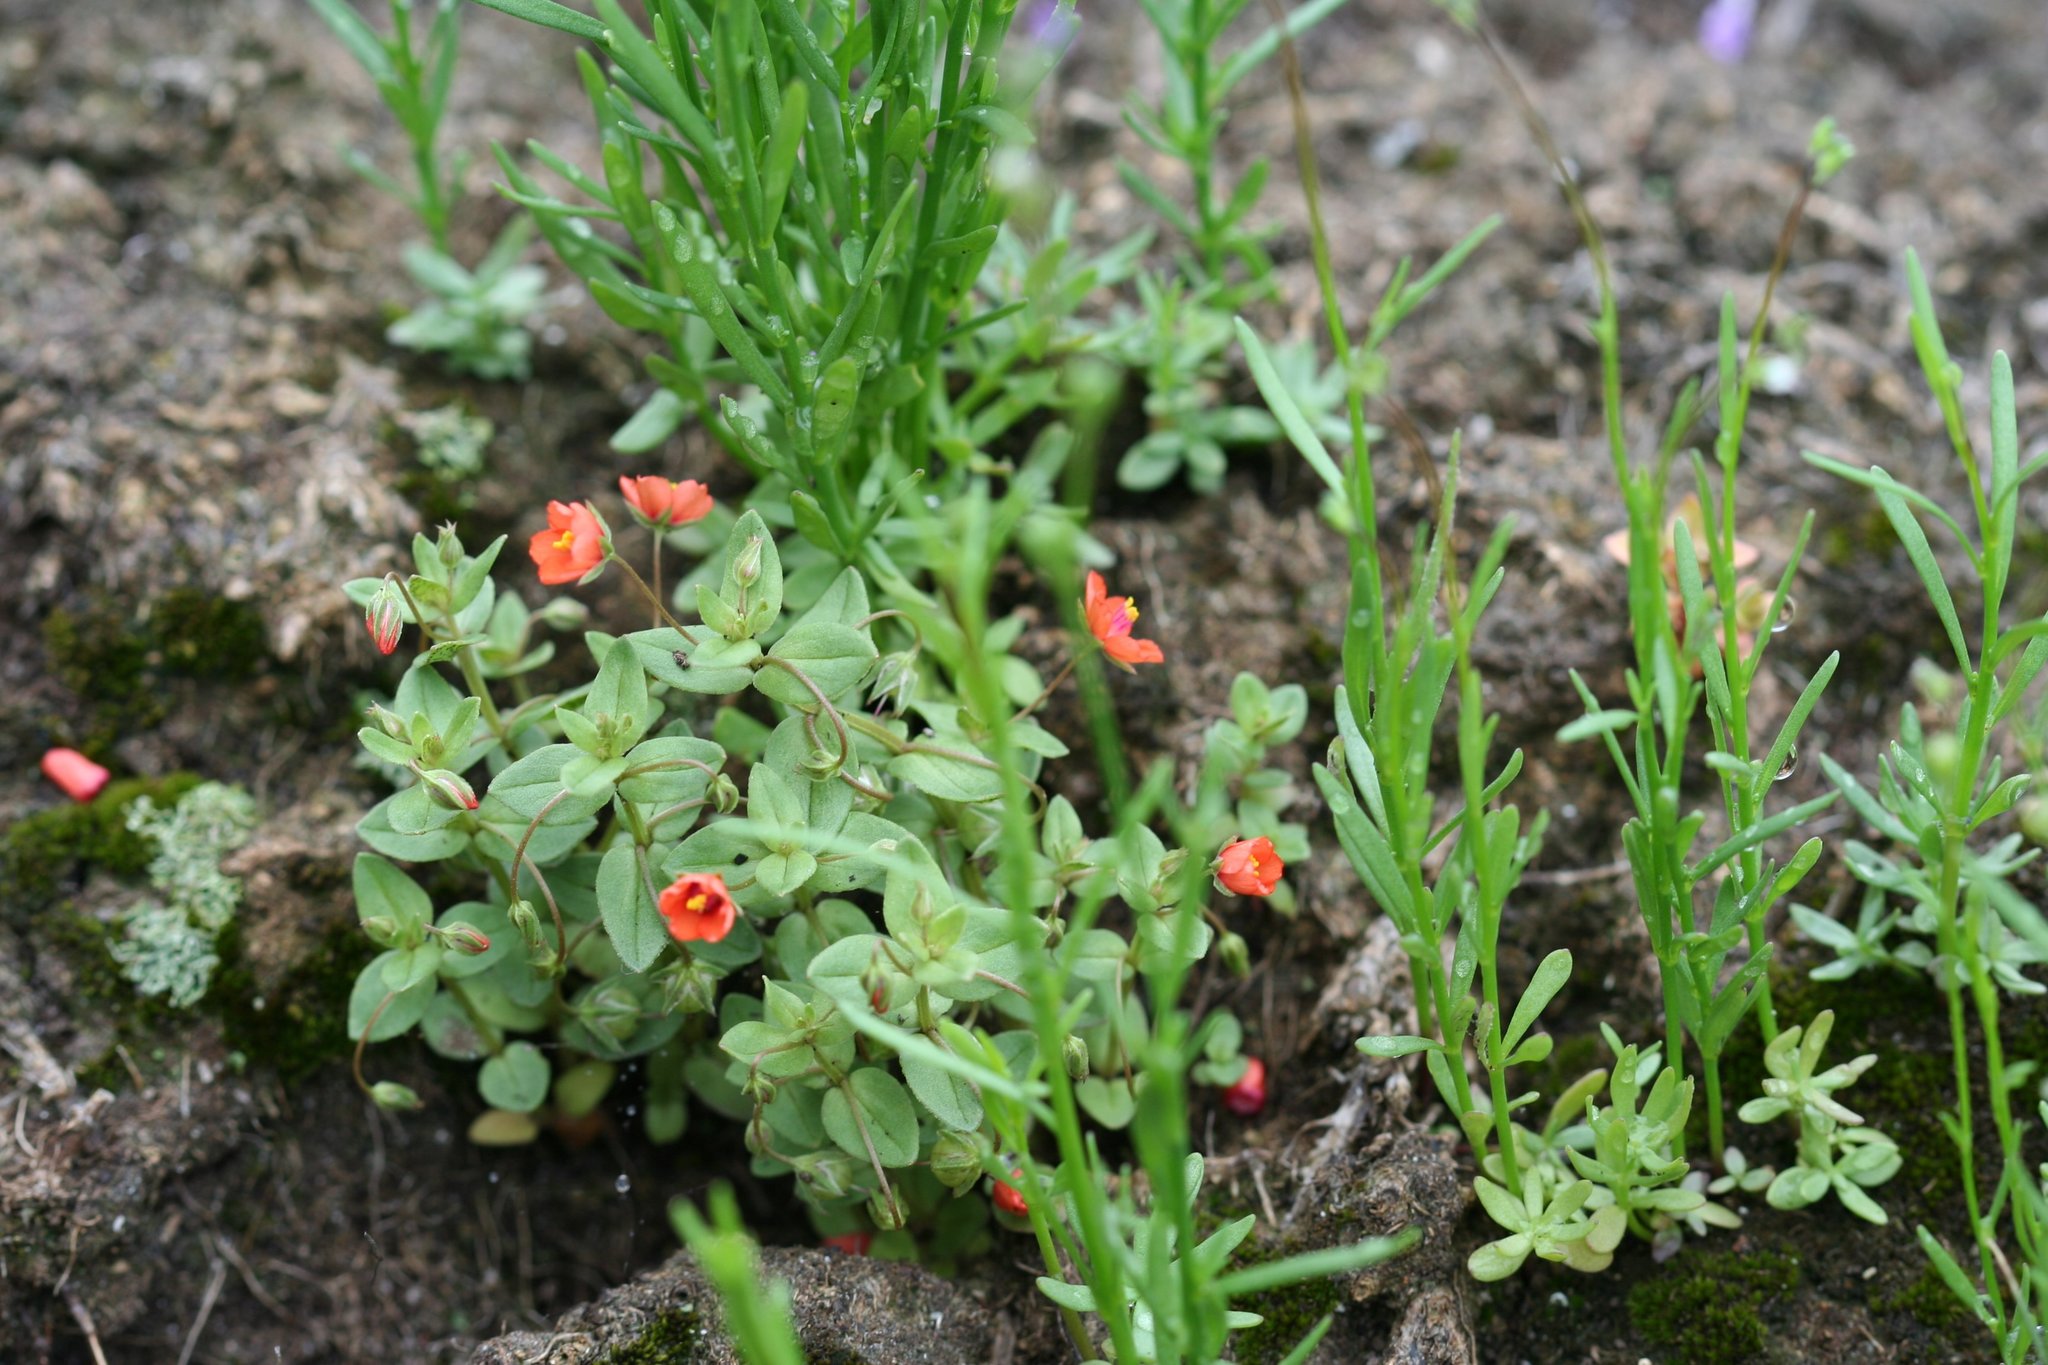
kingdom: Plantae
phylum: Tracheophyta
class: Magnoliopsida
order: Ericales
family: Primulaceae
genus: Lysimachia
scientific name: Lysimachia arvensis
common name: Scarlet pimpernel
